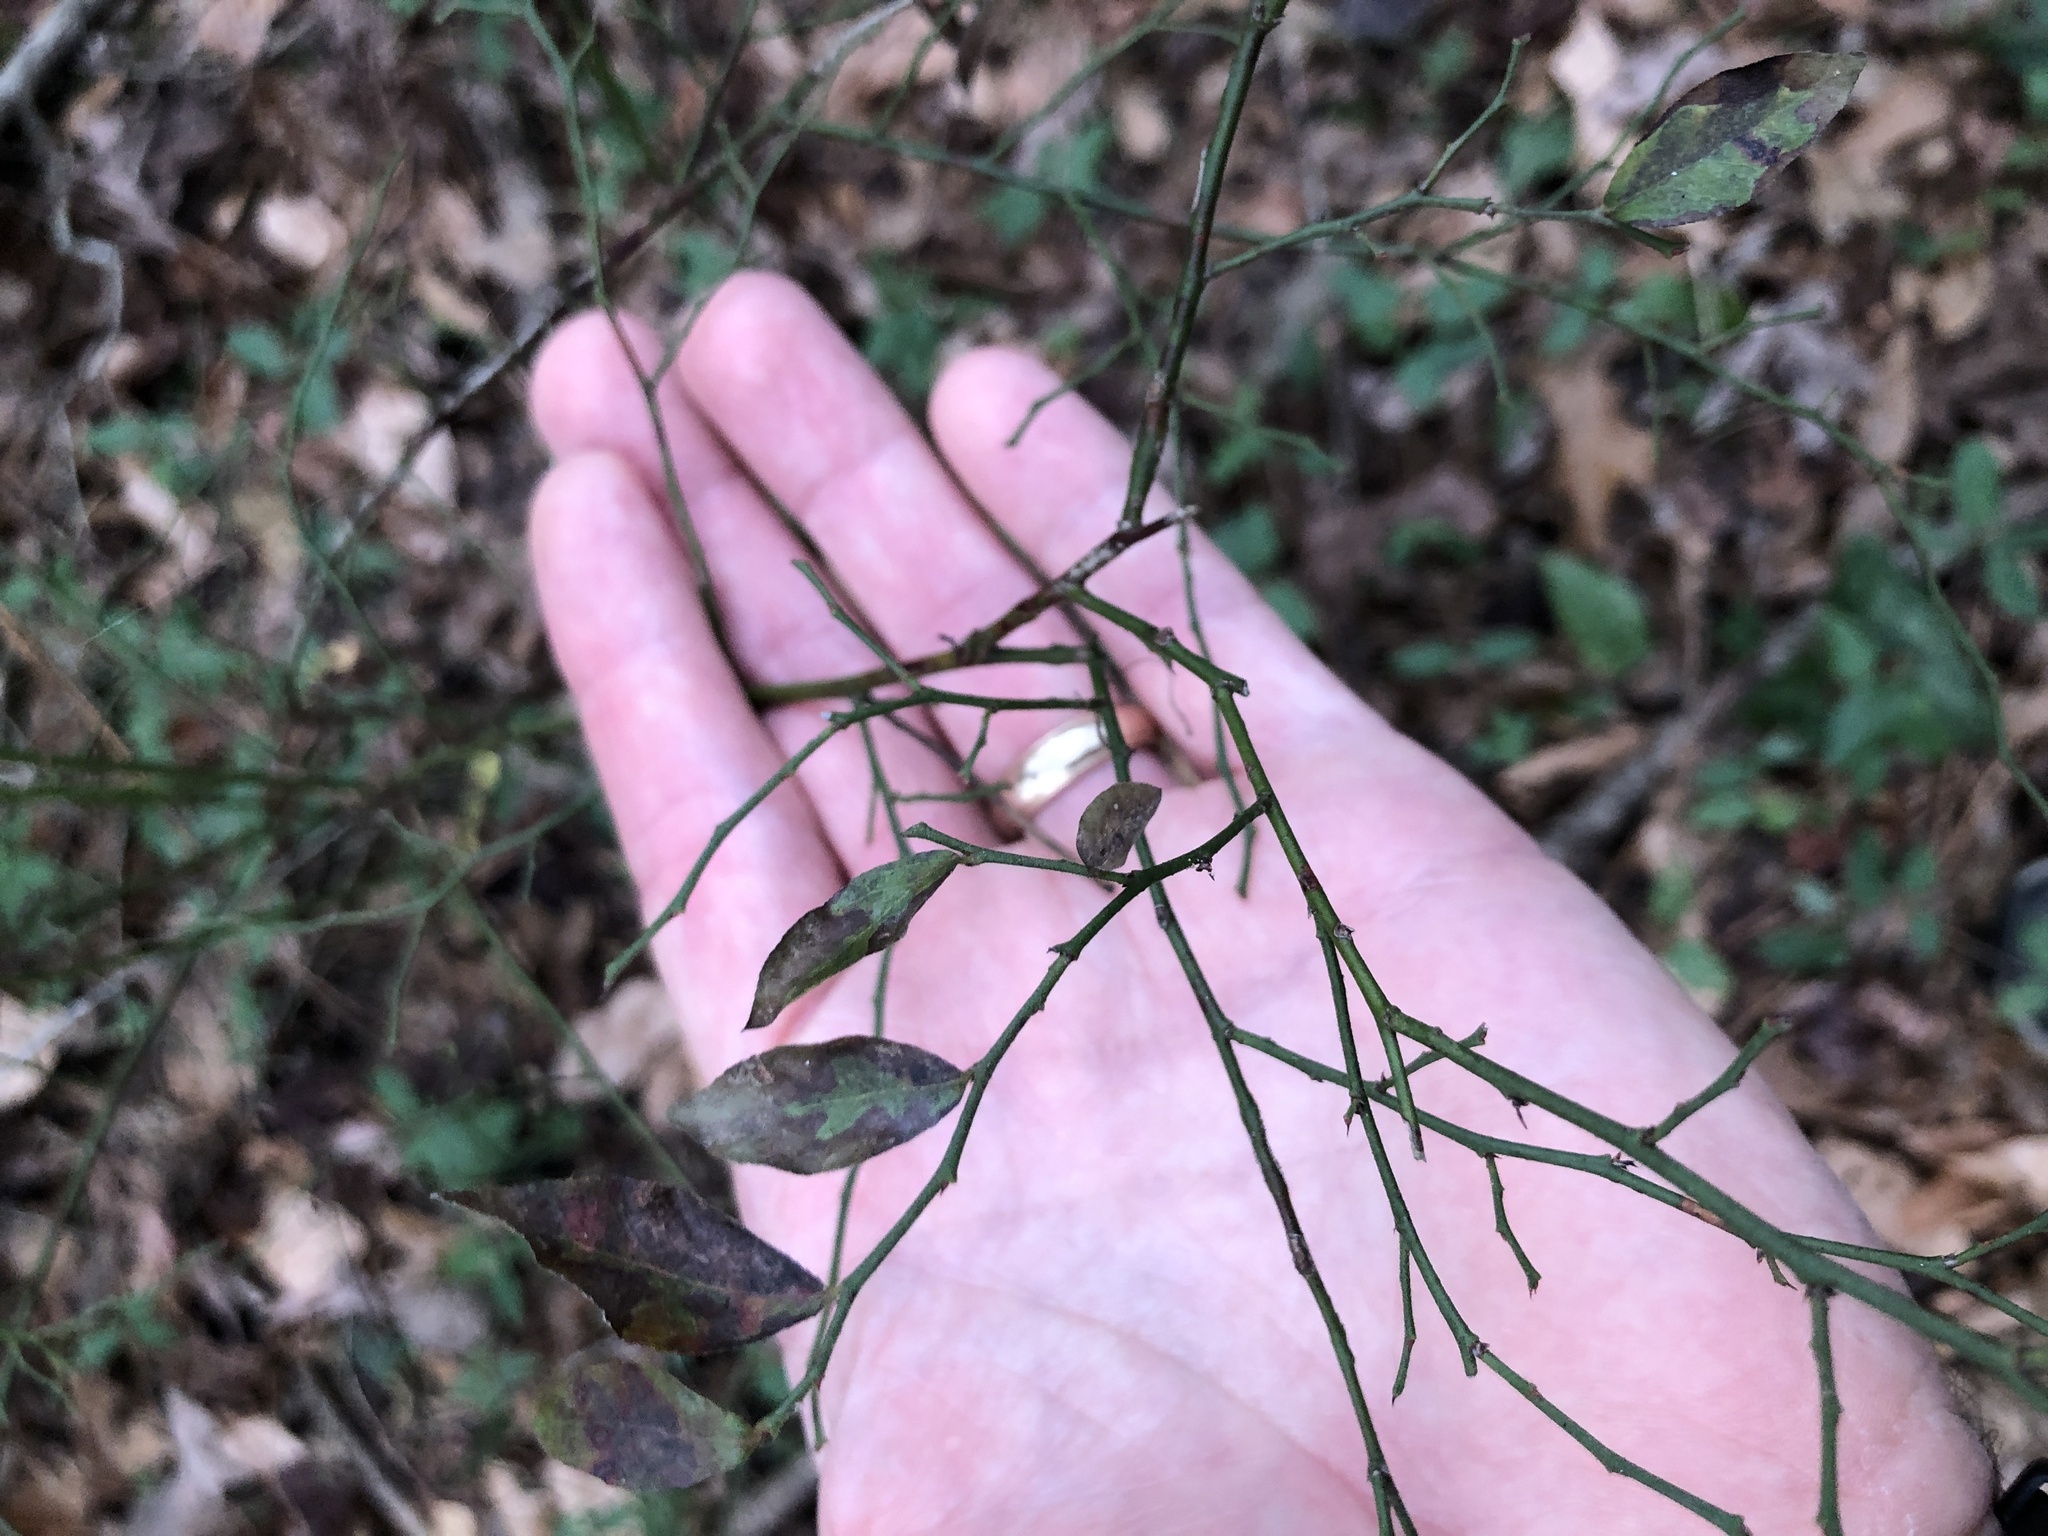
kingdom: Plantae
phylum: Tracheophyta
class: Magnoliopsida
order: Ericales
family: Ericaceae
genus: Vaccinium
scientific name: Vaccinium corymbosum
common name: Blueberry
